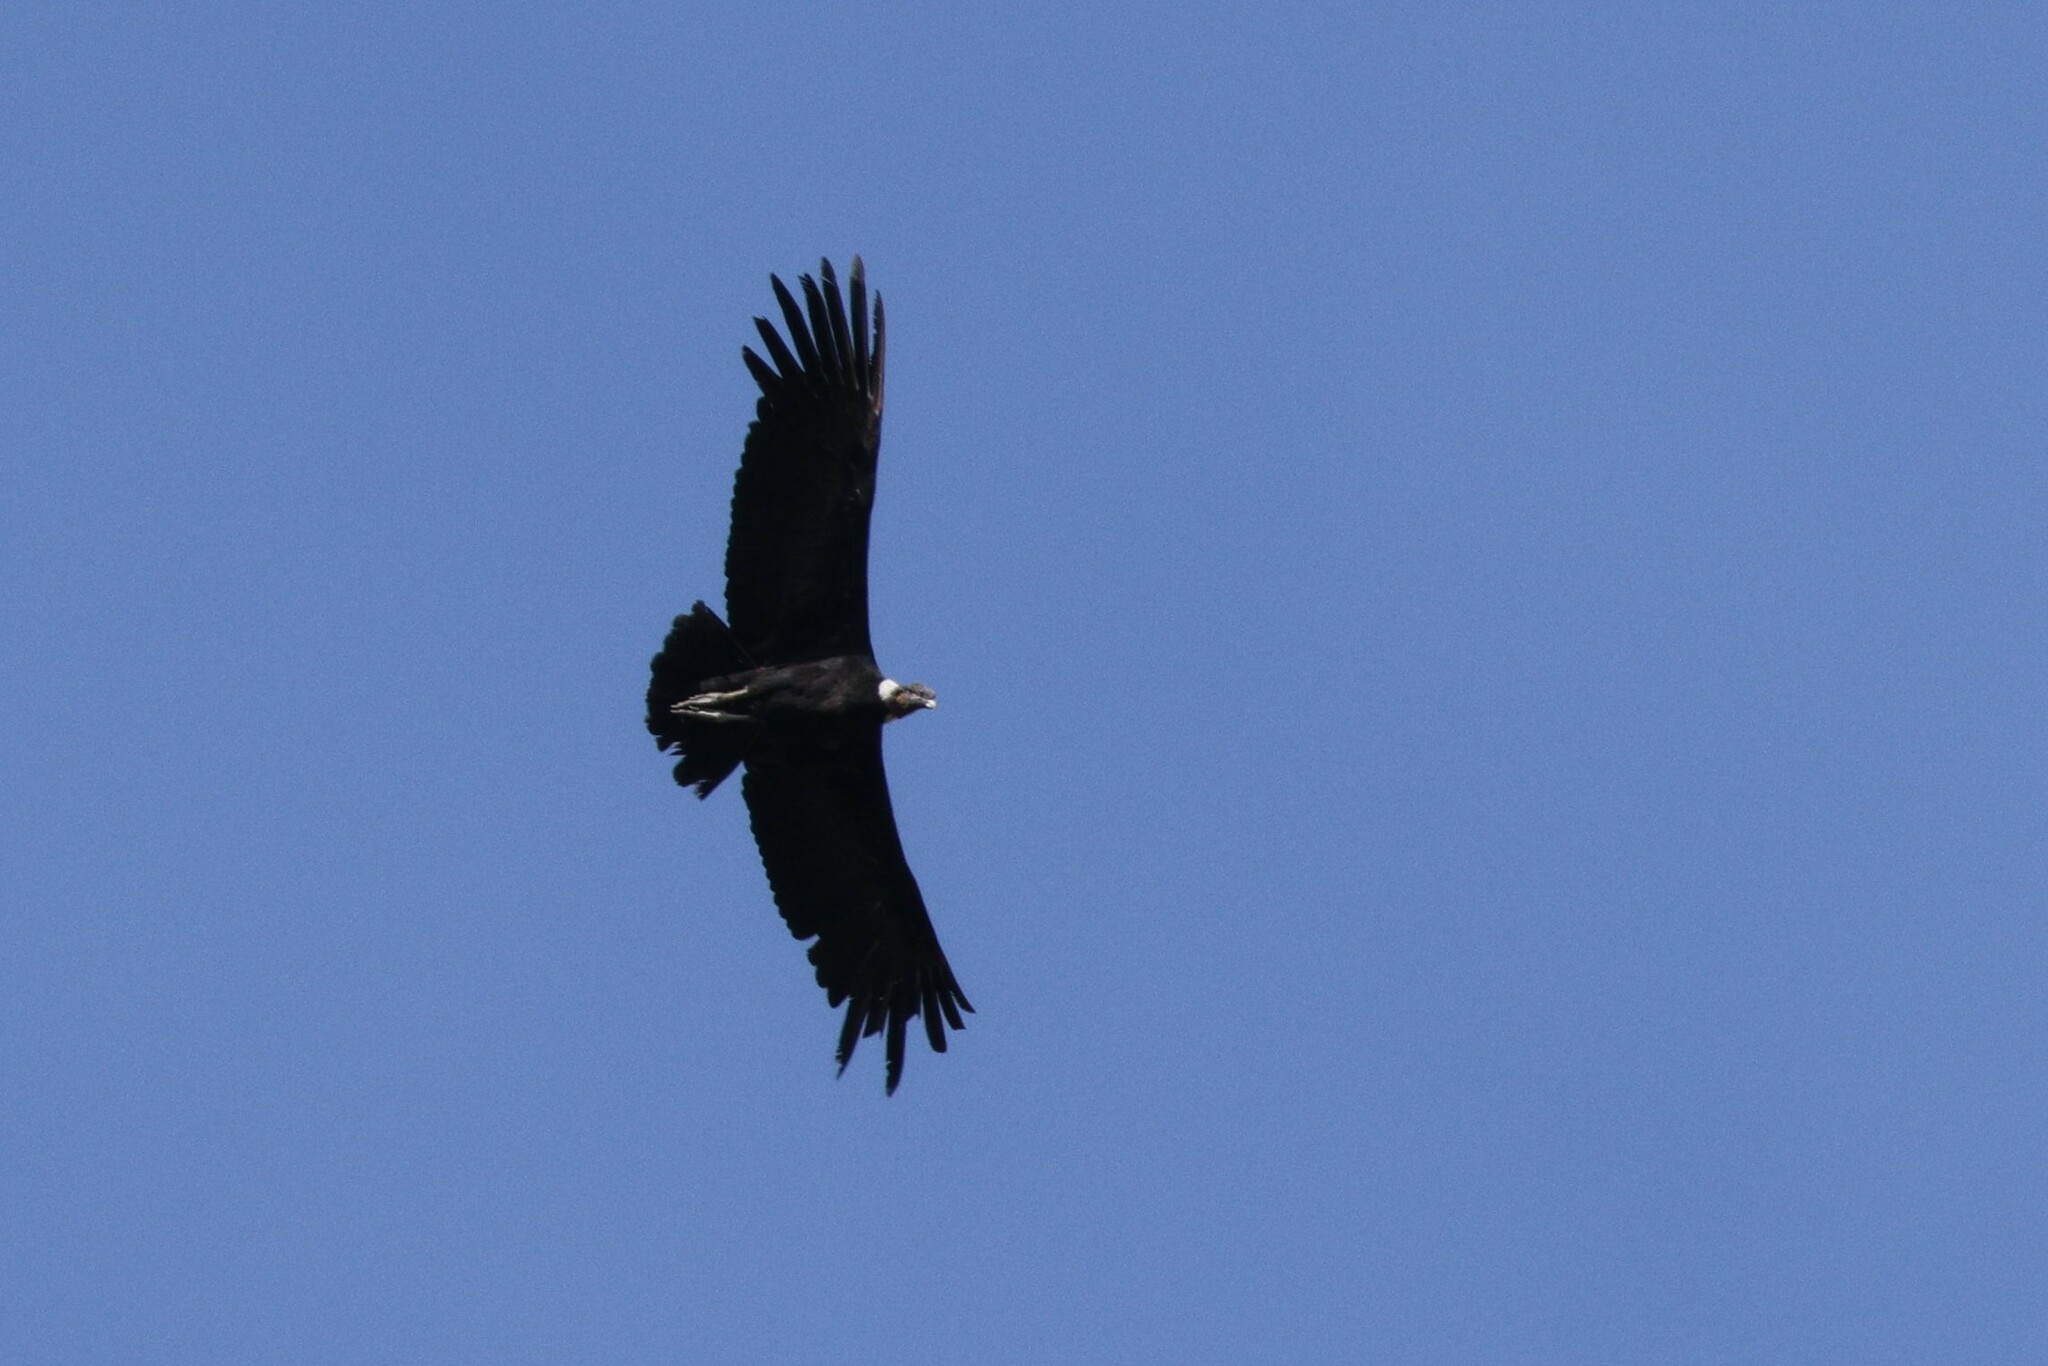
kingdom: Animalia
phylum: Chordata
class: Aves
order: Accipitriformes
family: Cathartidae
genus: Vultur
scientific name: Vultur gryphus
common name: Andean condor
